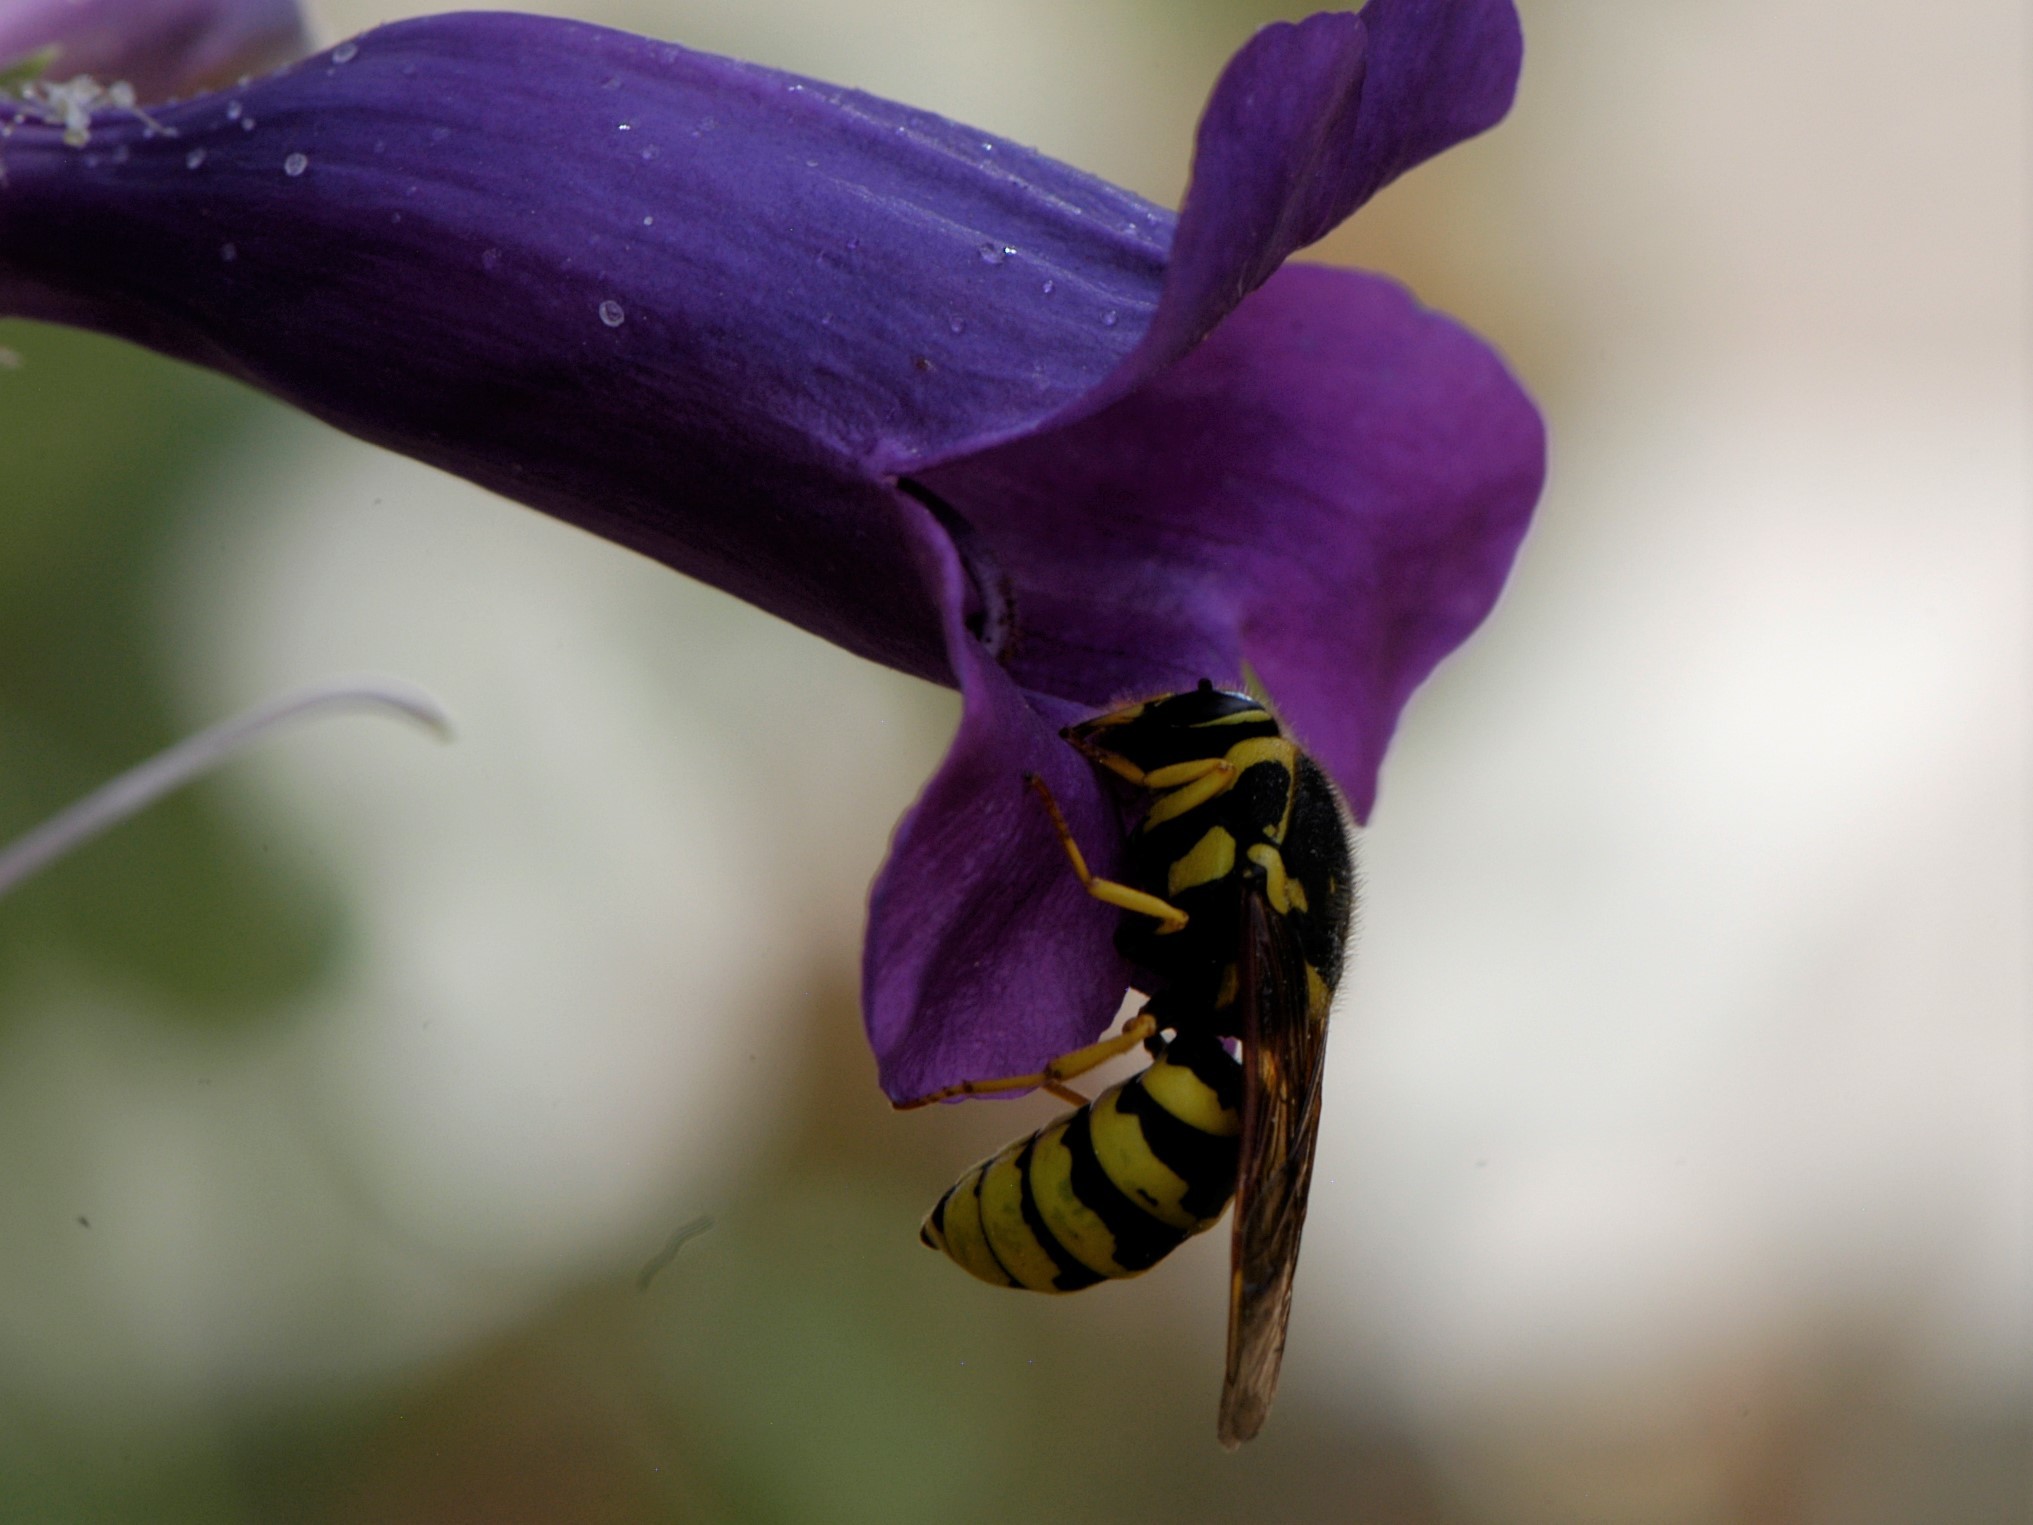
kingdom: Animalia
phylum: Arthropoda
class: Insecta
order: Hymenoptera
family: Masaridae
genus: Pseudomasaris
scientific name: Pseudomasaris vespoides
